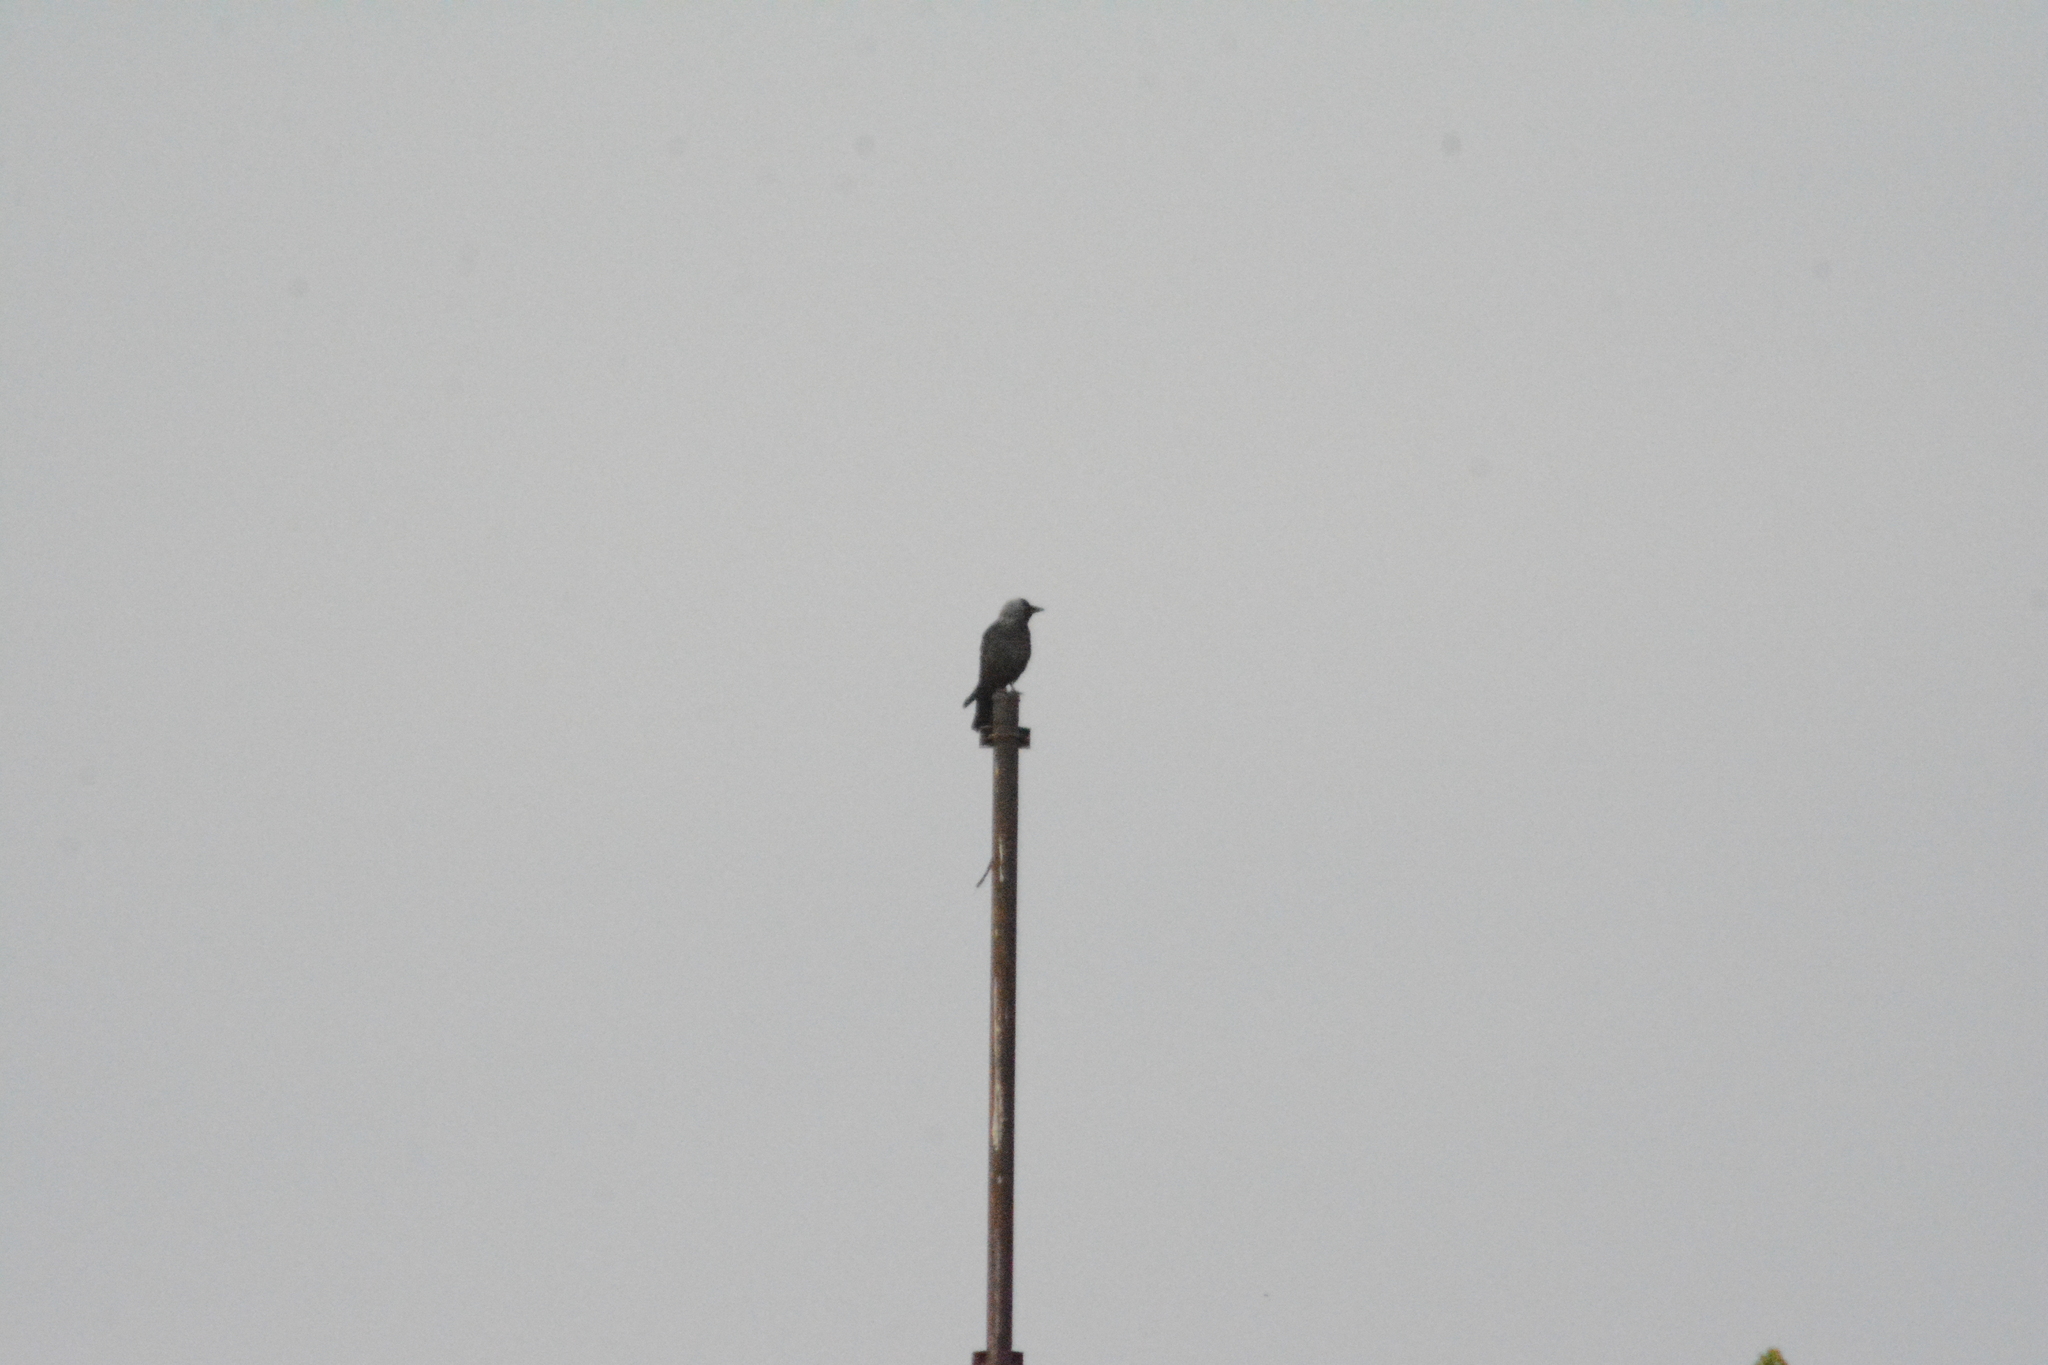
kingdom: Animalia
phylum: Chordata
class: Aves
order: Passeriformes
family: Corvidae
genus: Coloeus
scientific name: Coloeus monedula
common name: Western jackdaw
